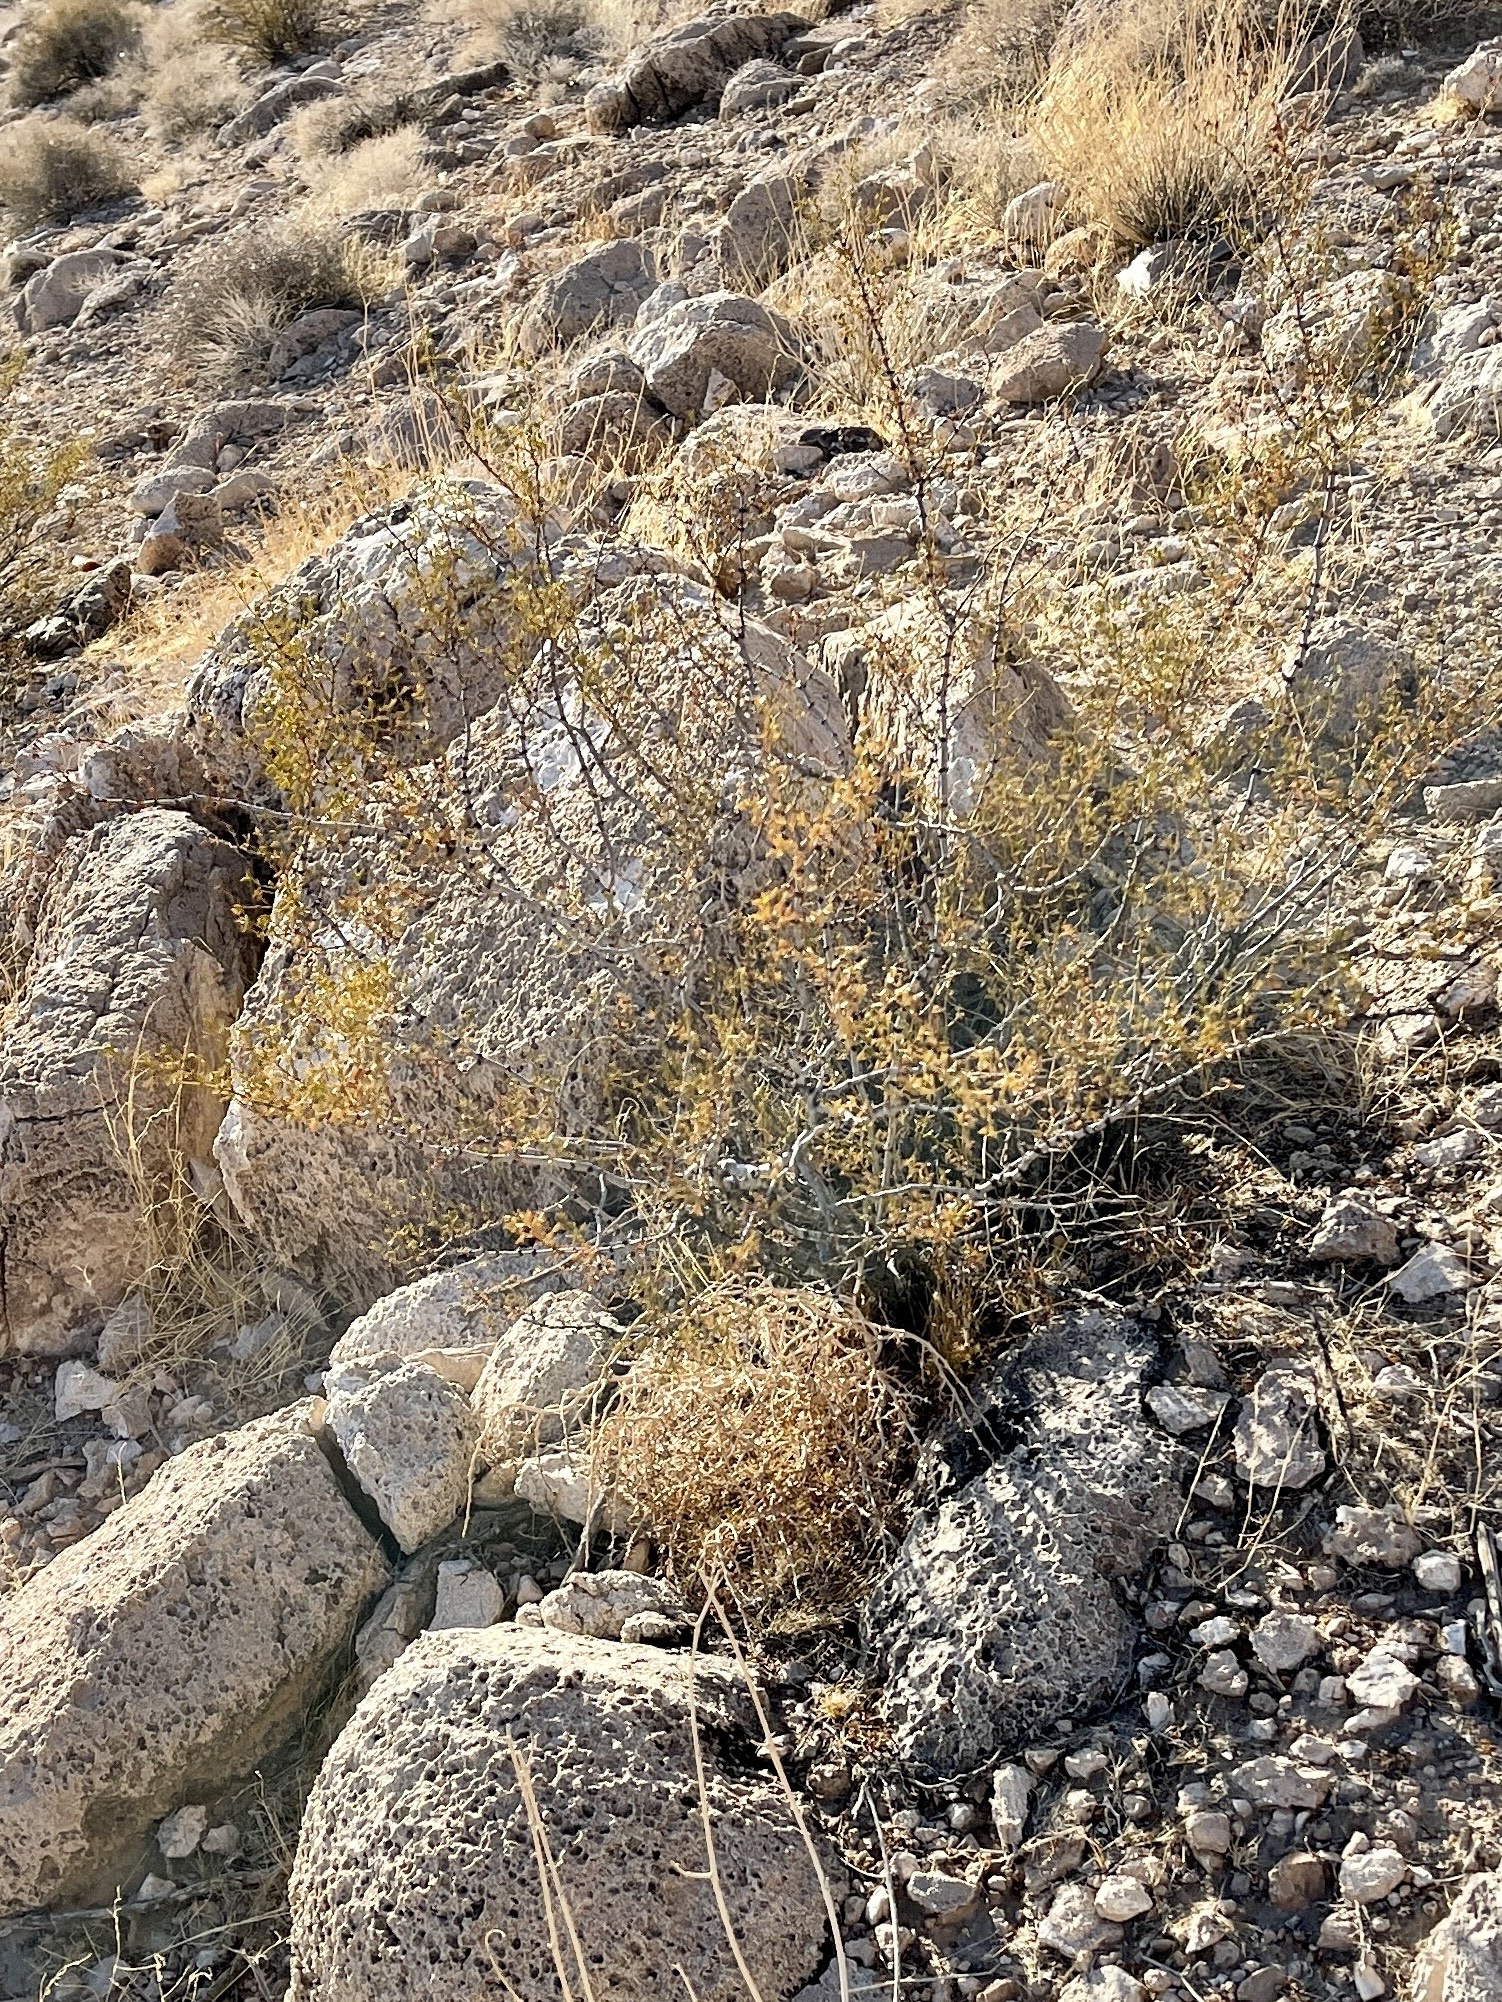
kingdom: Plantae
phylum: Tracheophyta
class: Magnoliopsida
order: Zygophyllales
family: Zygophyllaceae
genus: Larrea
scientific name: Larrea tridentata
